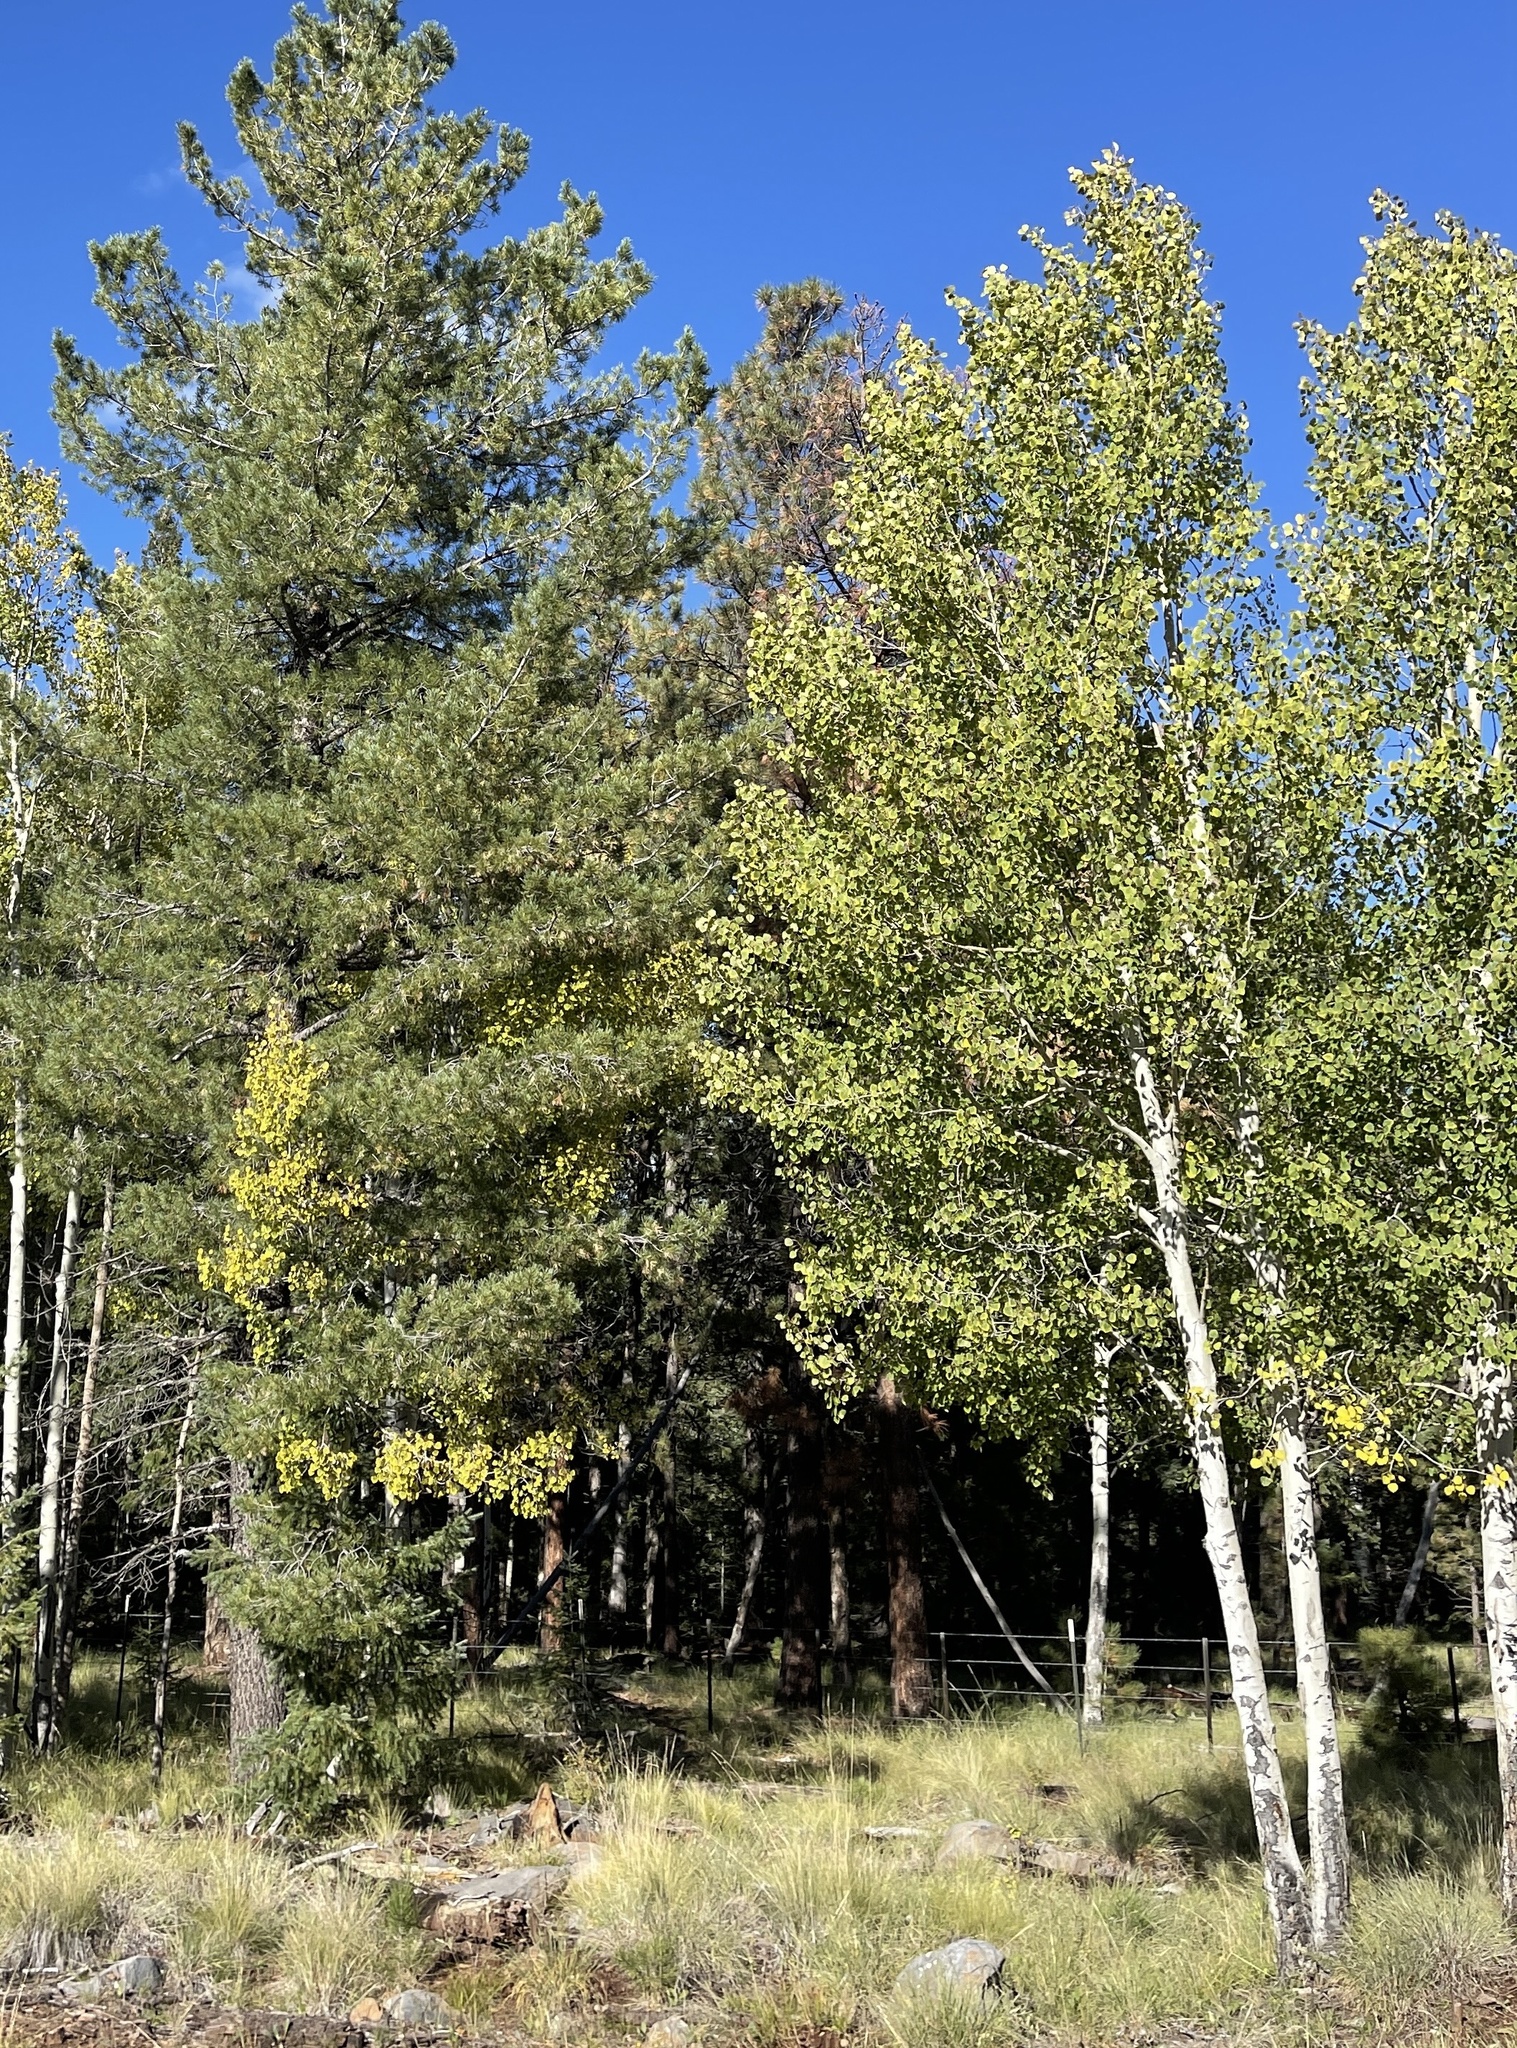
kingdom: Plantae
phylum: Tracheophyta
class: Magnoliopsida
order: Malpighiales
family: Salicaceae
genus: Populus
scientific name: Populus tremuloides
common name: Quaking aspen
